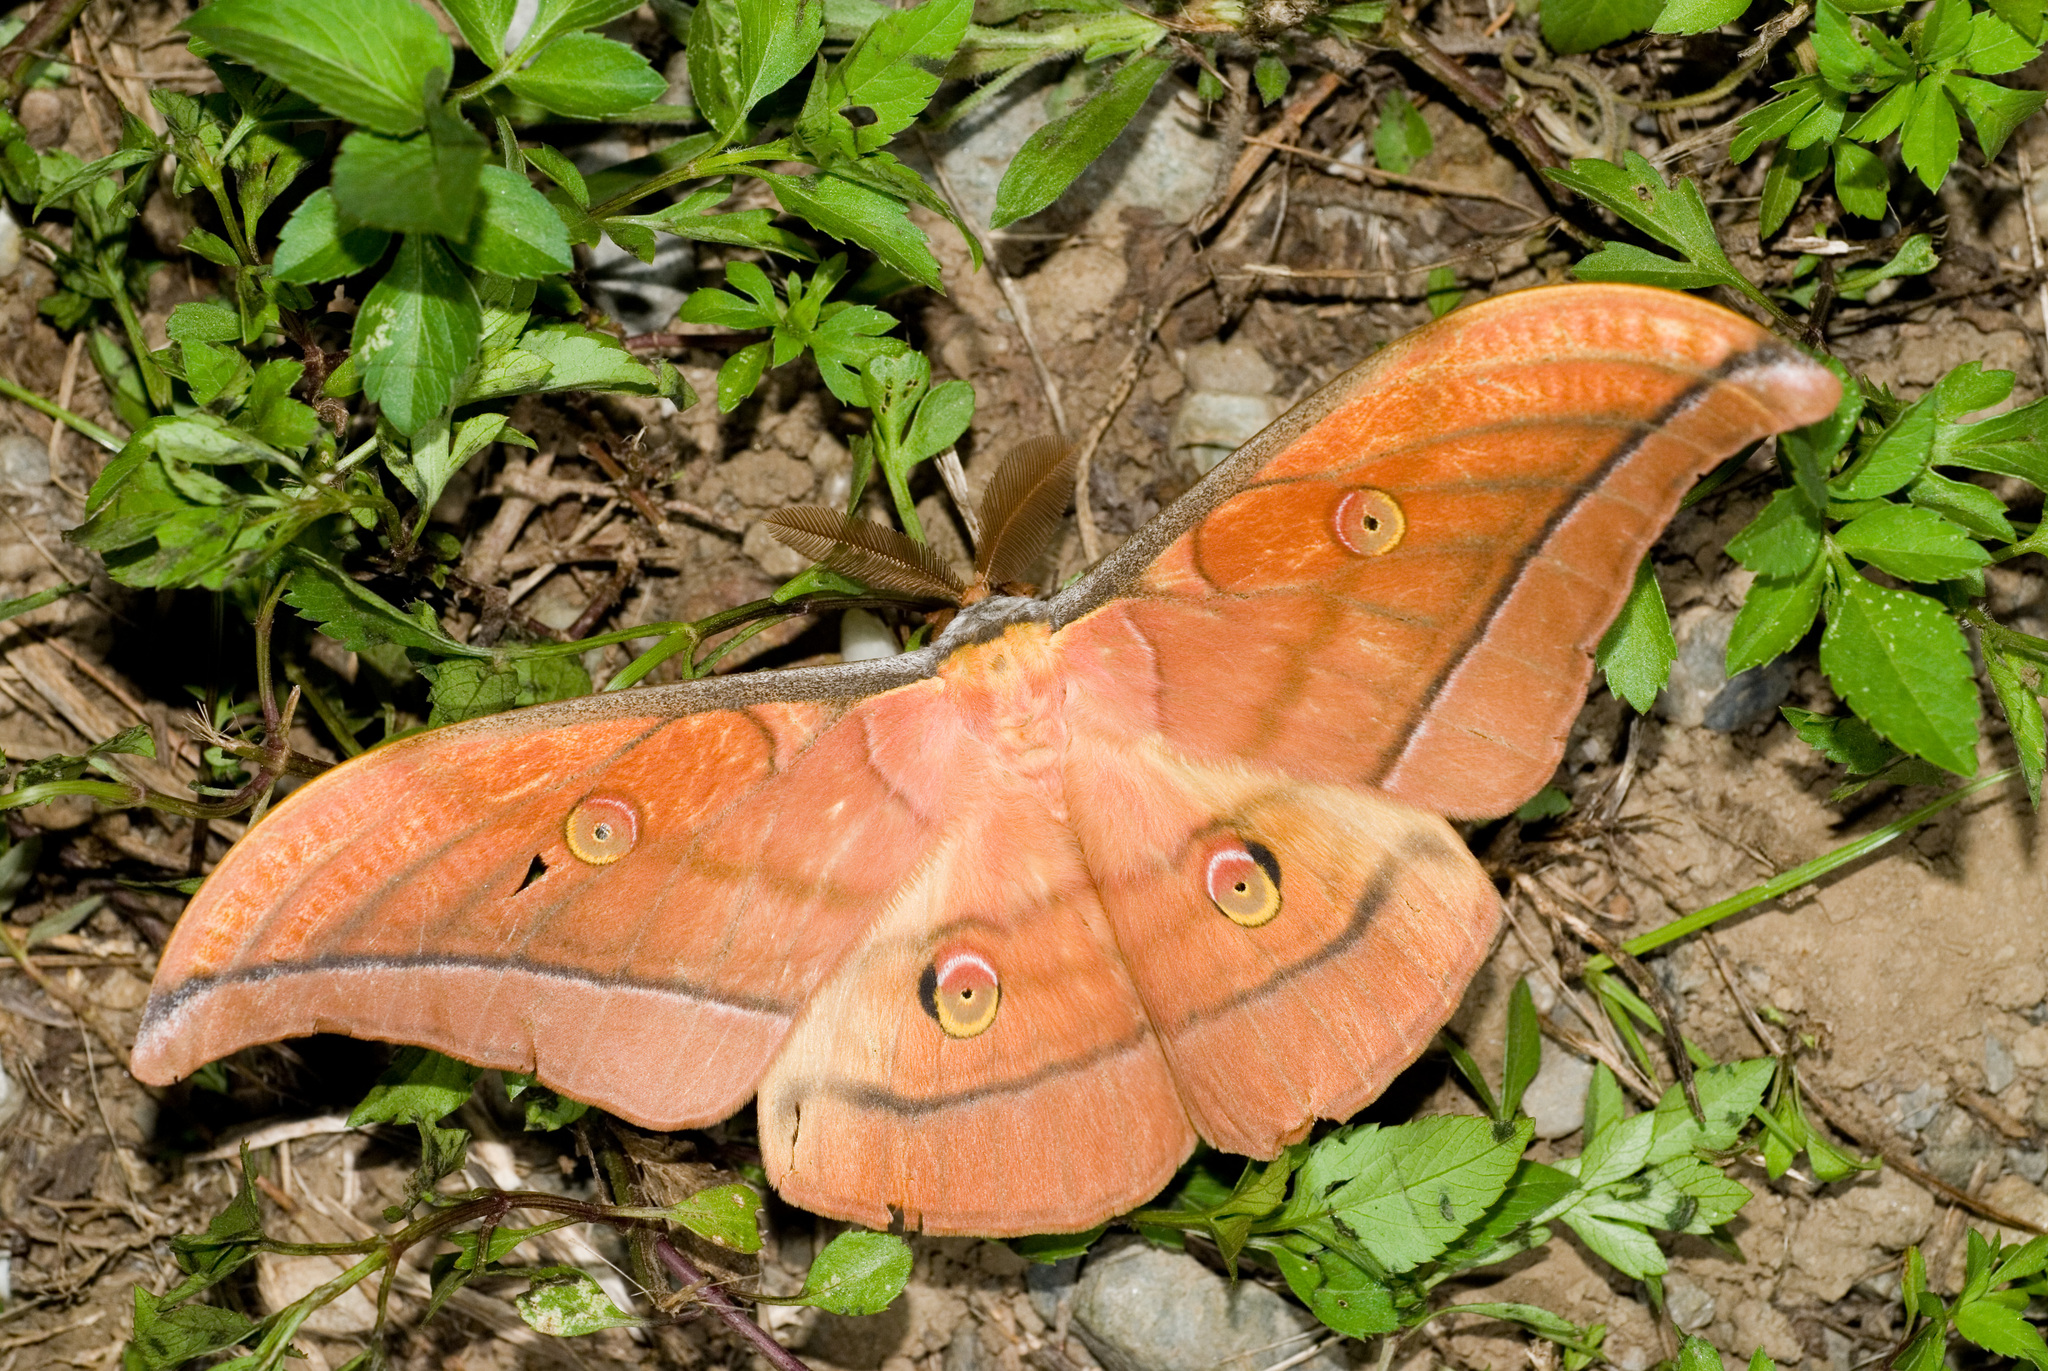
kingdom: Animalia
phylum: Arthropoda
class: Insecta
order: Lepidoptera
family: Saturniidae
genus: Antheraea
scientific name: Antheraea superba
